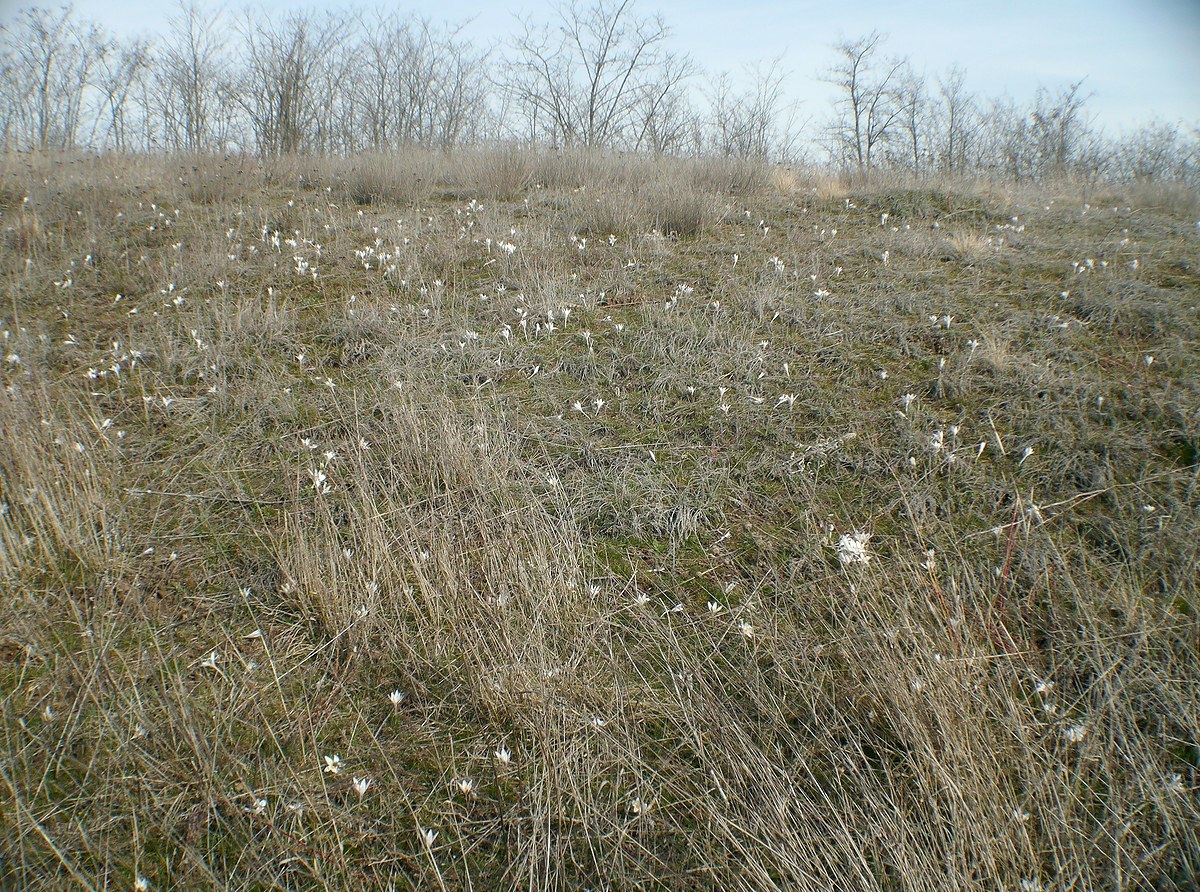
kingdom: Plantae
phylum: Tracheophyta
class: Liliopsida
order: Asparagales
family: Iridaceae
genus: Crocus
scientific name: Crocus reticulatus
